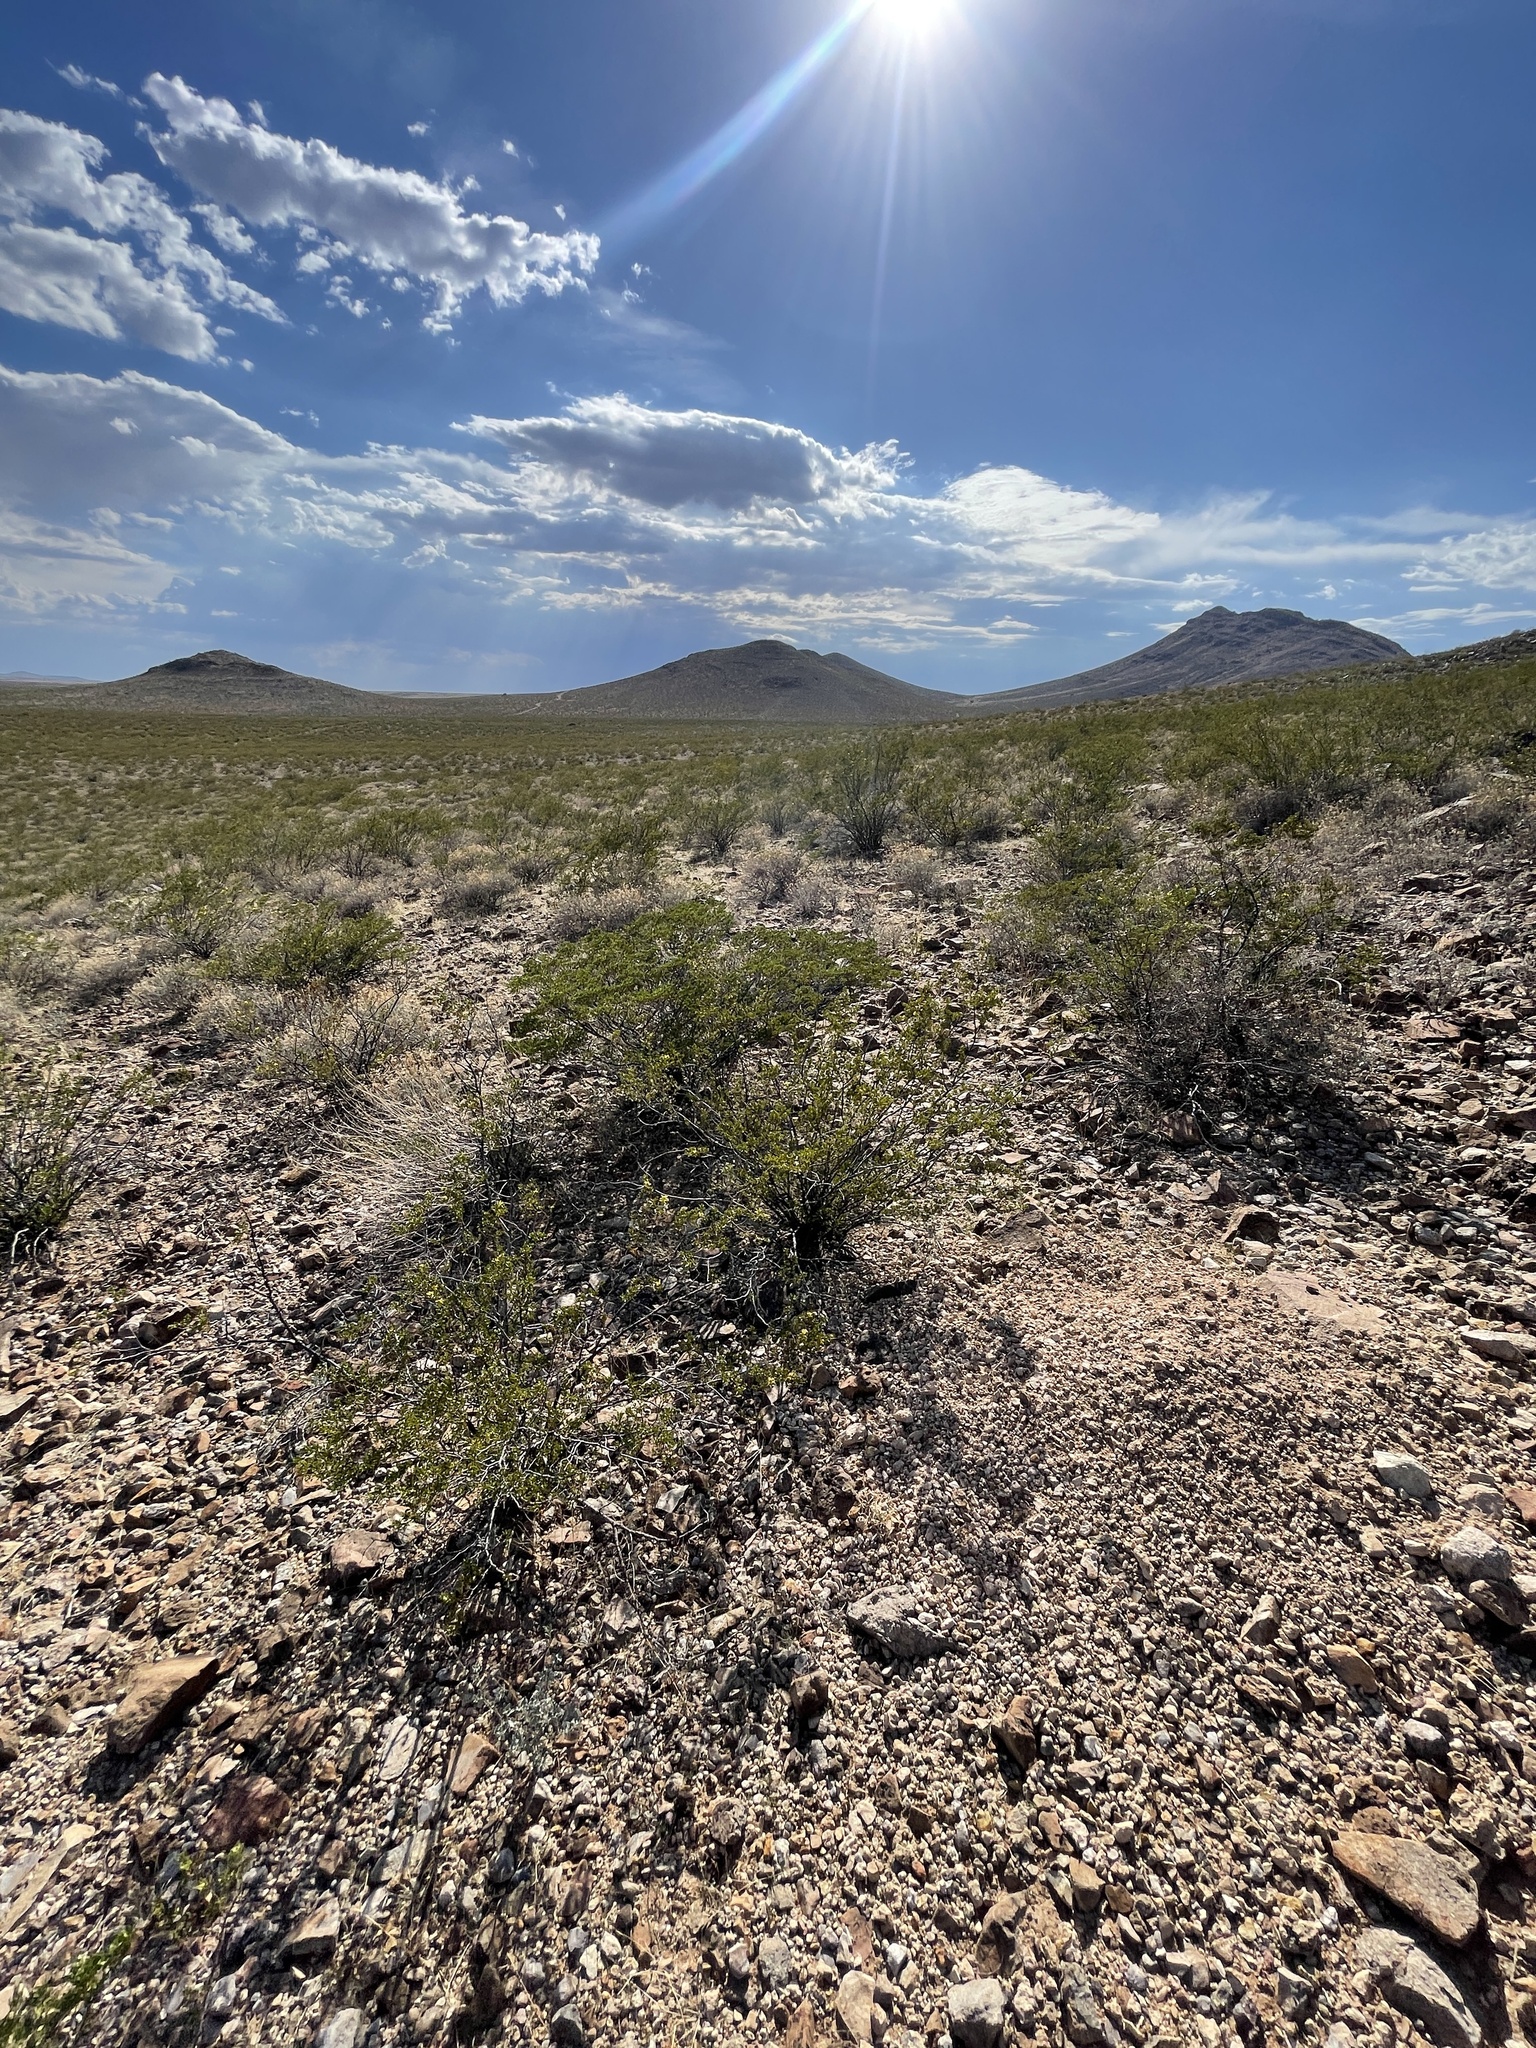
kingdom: Plantae
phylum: Tracheophyta
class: Magnoliopsida
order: Zygophyllales
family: Zygophyllaceae
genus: Larrea
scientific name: Larrea tridentata
